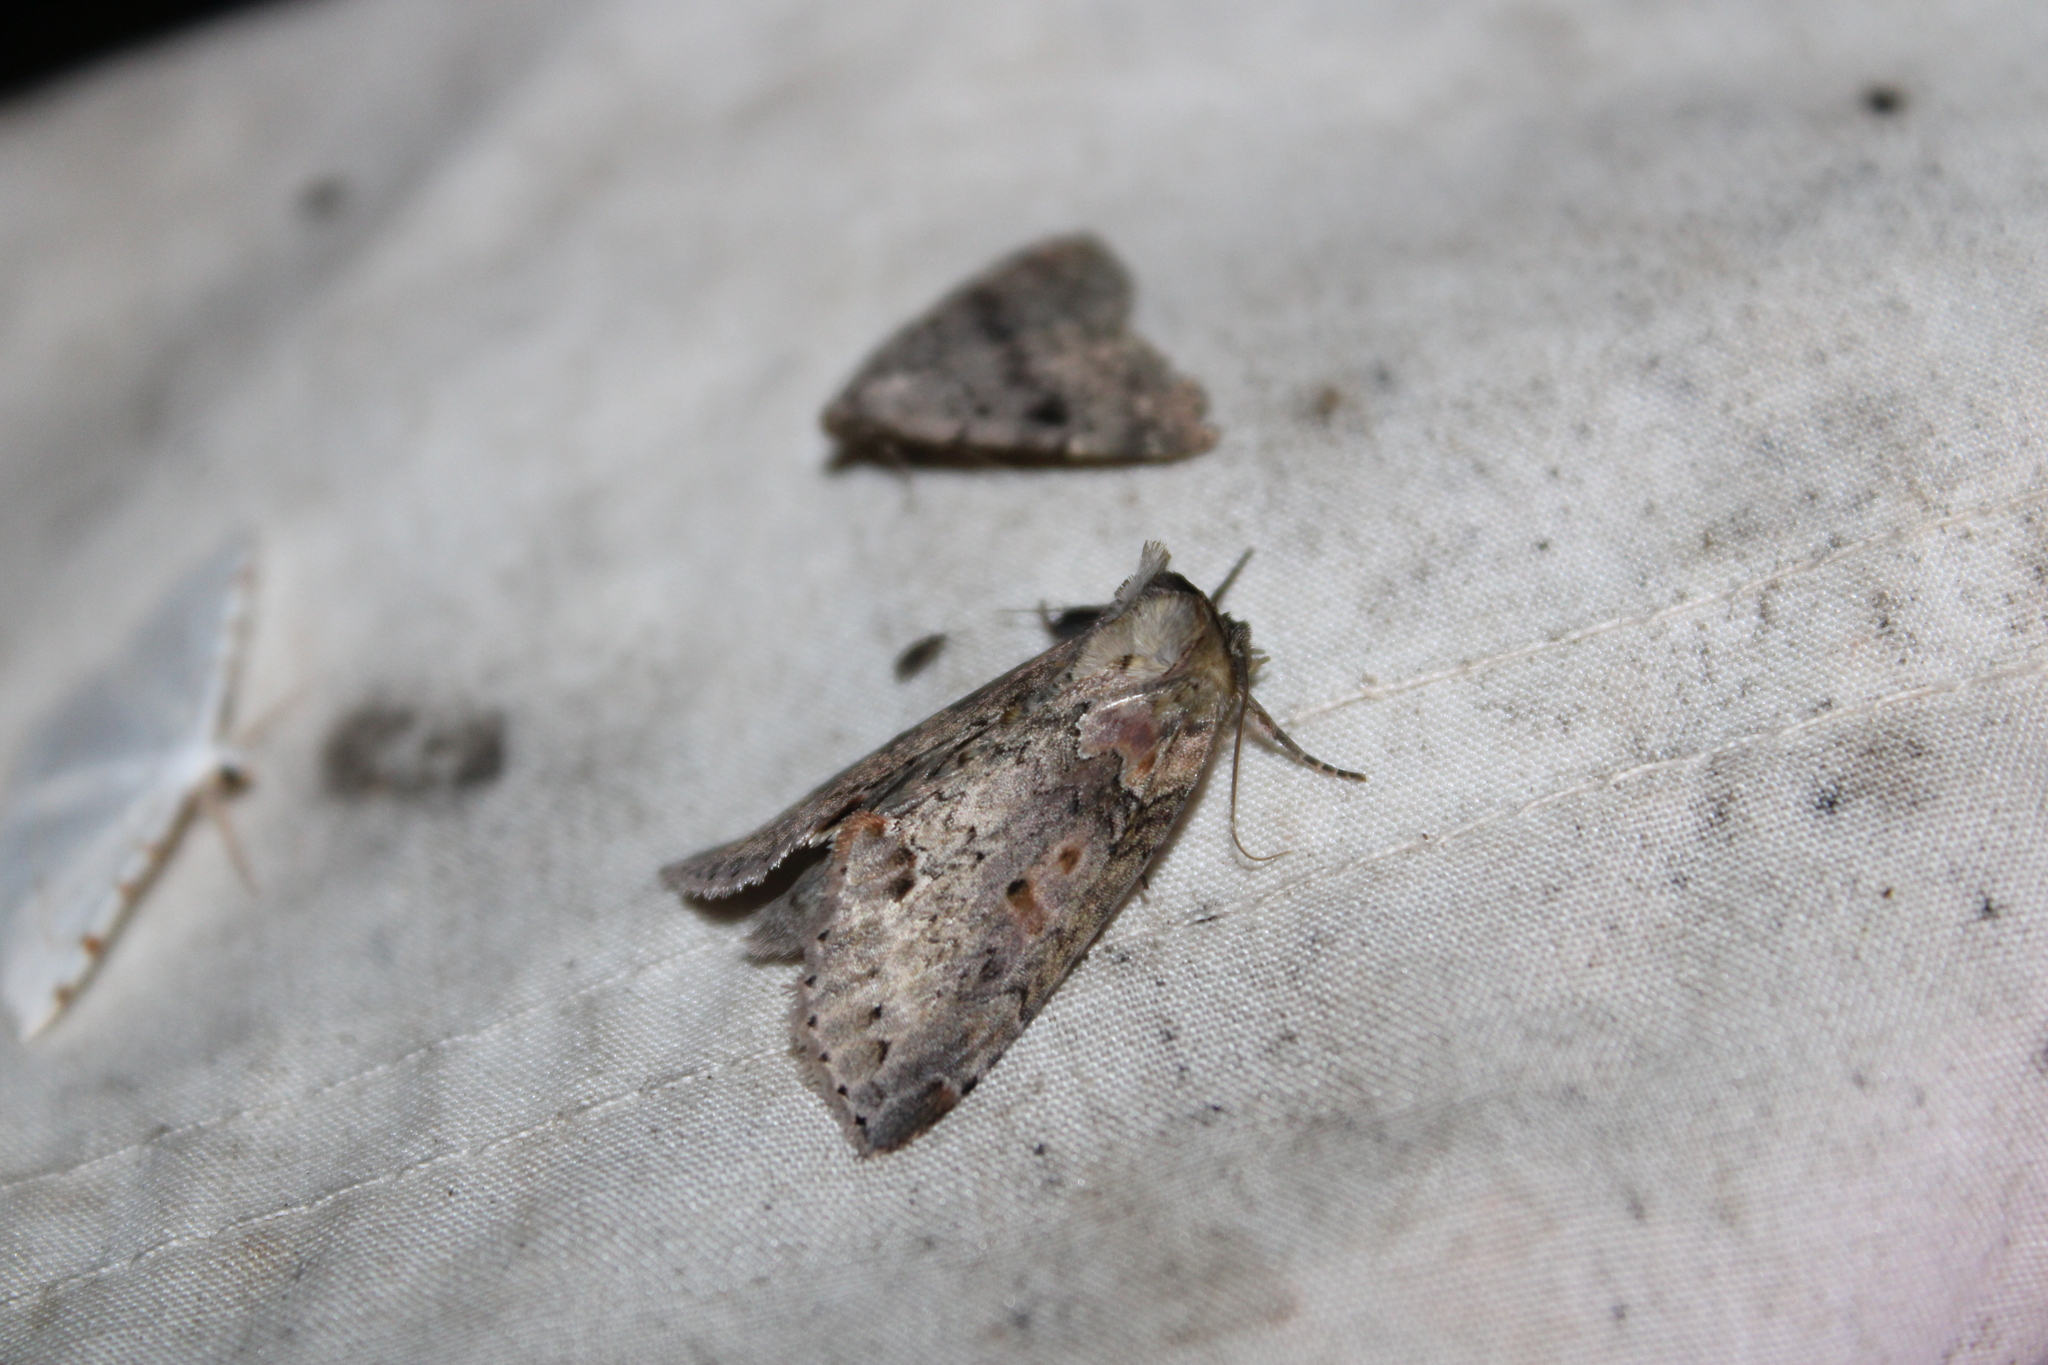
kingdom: Animalia
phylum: Arthropoda
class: Insecta
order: Lepidoptera
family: Drepanidae
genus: Pseudothyatira
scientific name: Pseudothyatira cymatophoroides
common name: Tufted thyatirid moth
